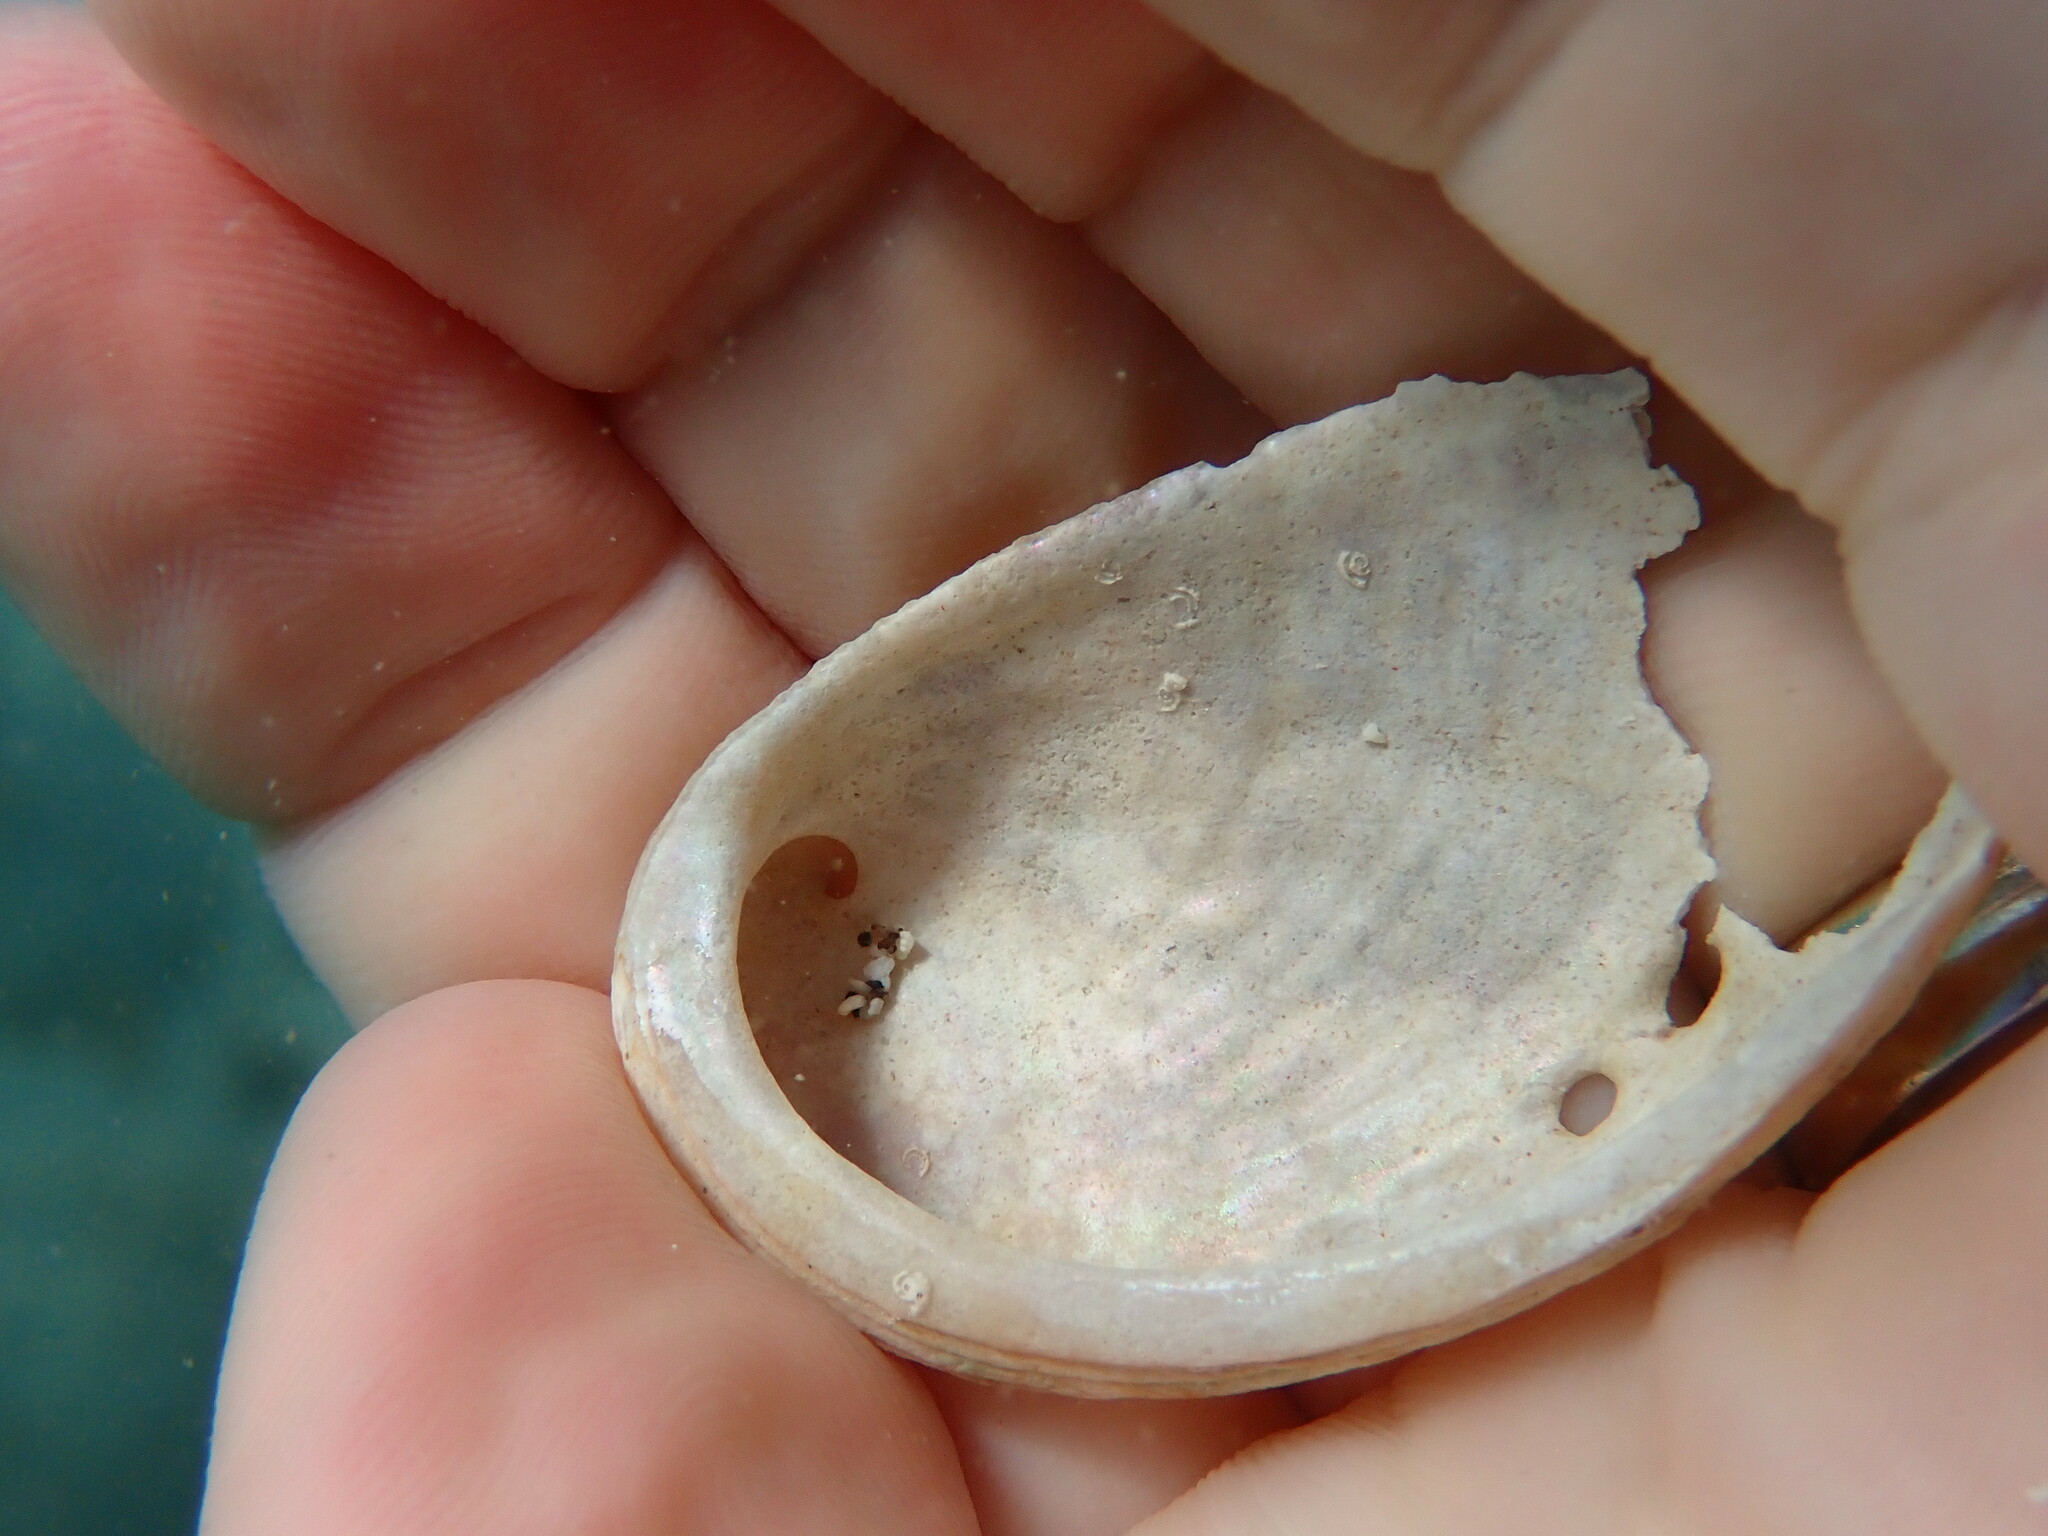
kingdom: Animalia
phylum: Mollusca
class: Gastropoda
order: Lepetellida
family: Haliotidae
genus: Haliotis
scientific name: Haliotis tuberculata
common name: Green ormer
